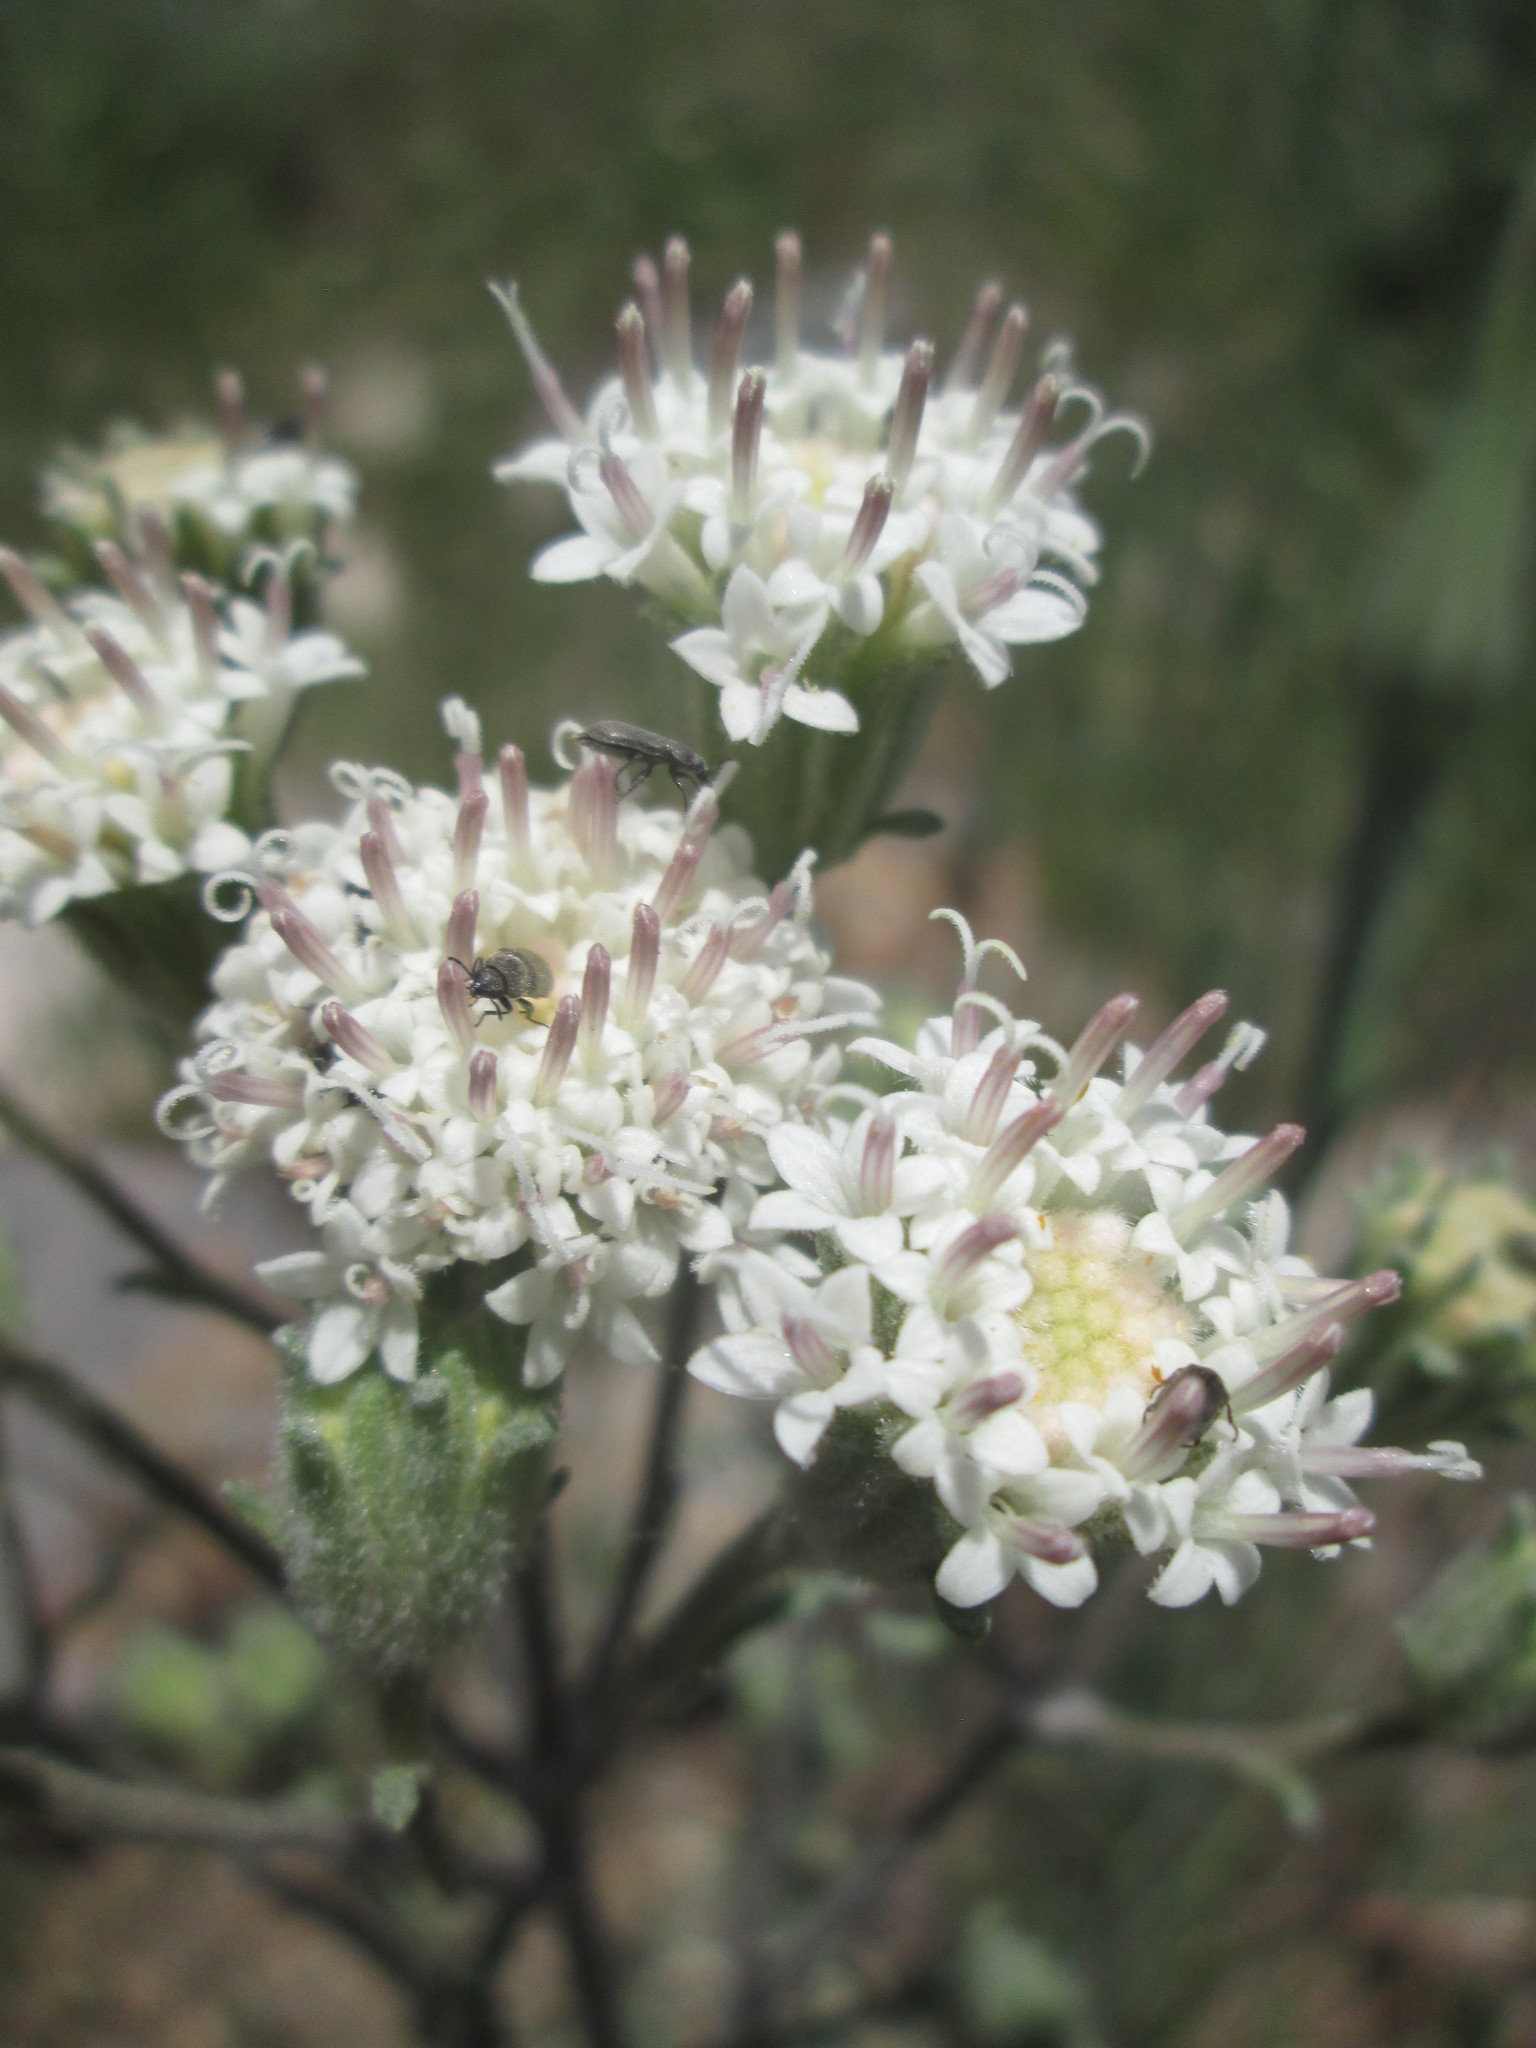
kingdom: Plantae
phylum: Tracheophyta
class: Magnoliopsida
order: Asterales
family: Asteraceae
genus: Chaenactis
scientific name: Chaenactis douglasii
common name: Hoary pincushion
